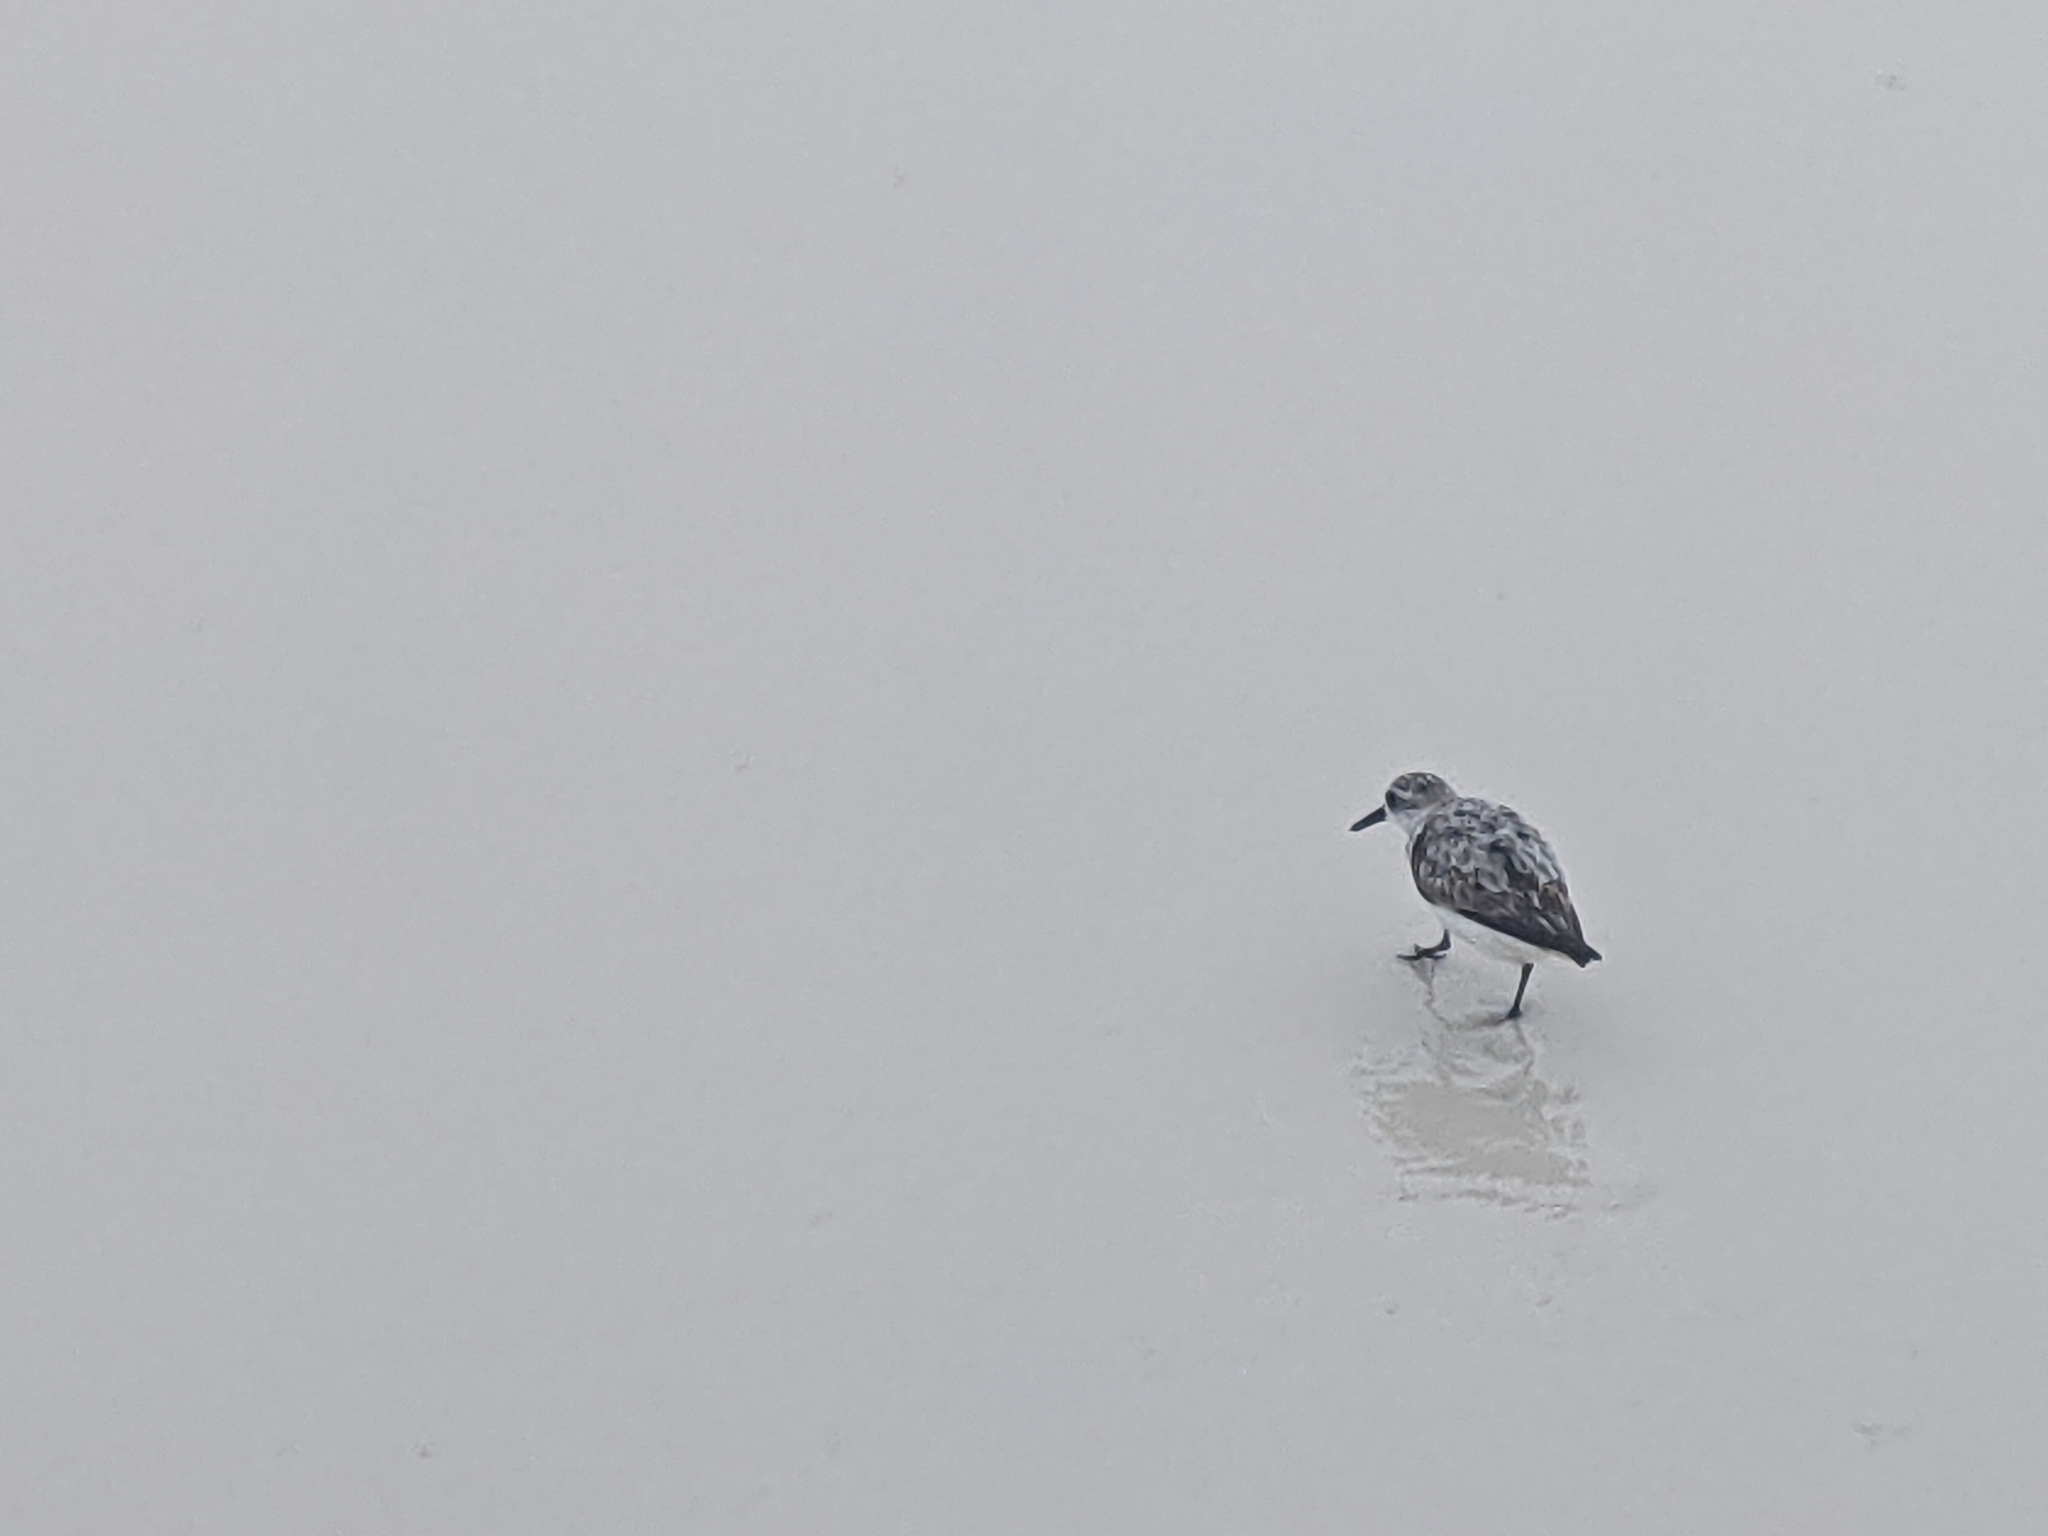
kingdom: Animalia
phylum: Chordata
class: Aves
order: Charadriiformes
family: Scolopacidae
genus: Calidris
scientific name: Calidris alba
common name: Sanderling
